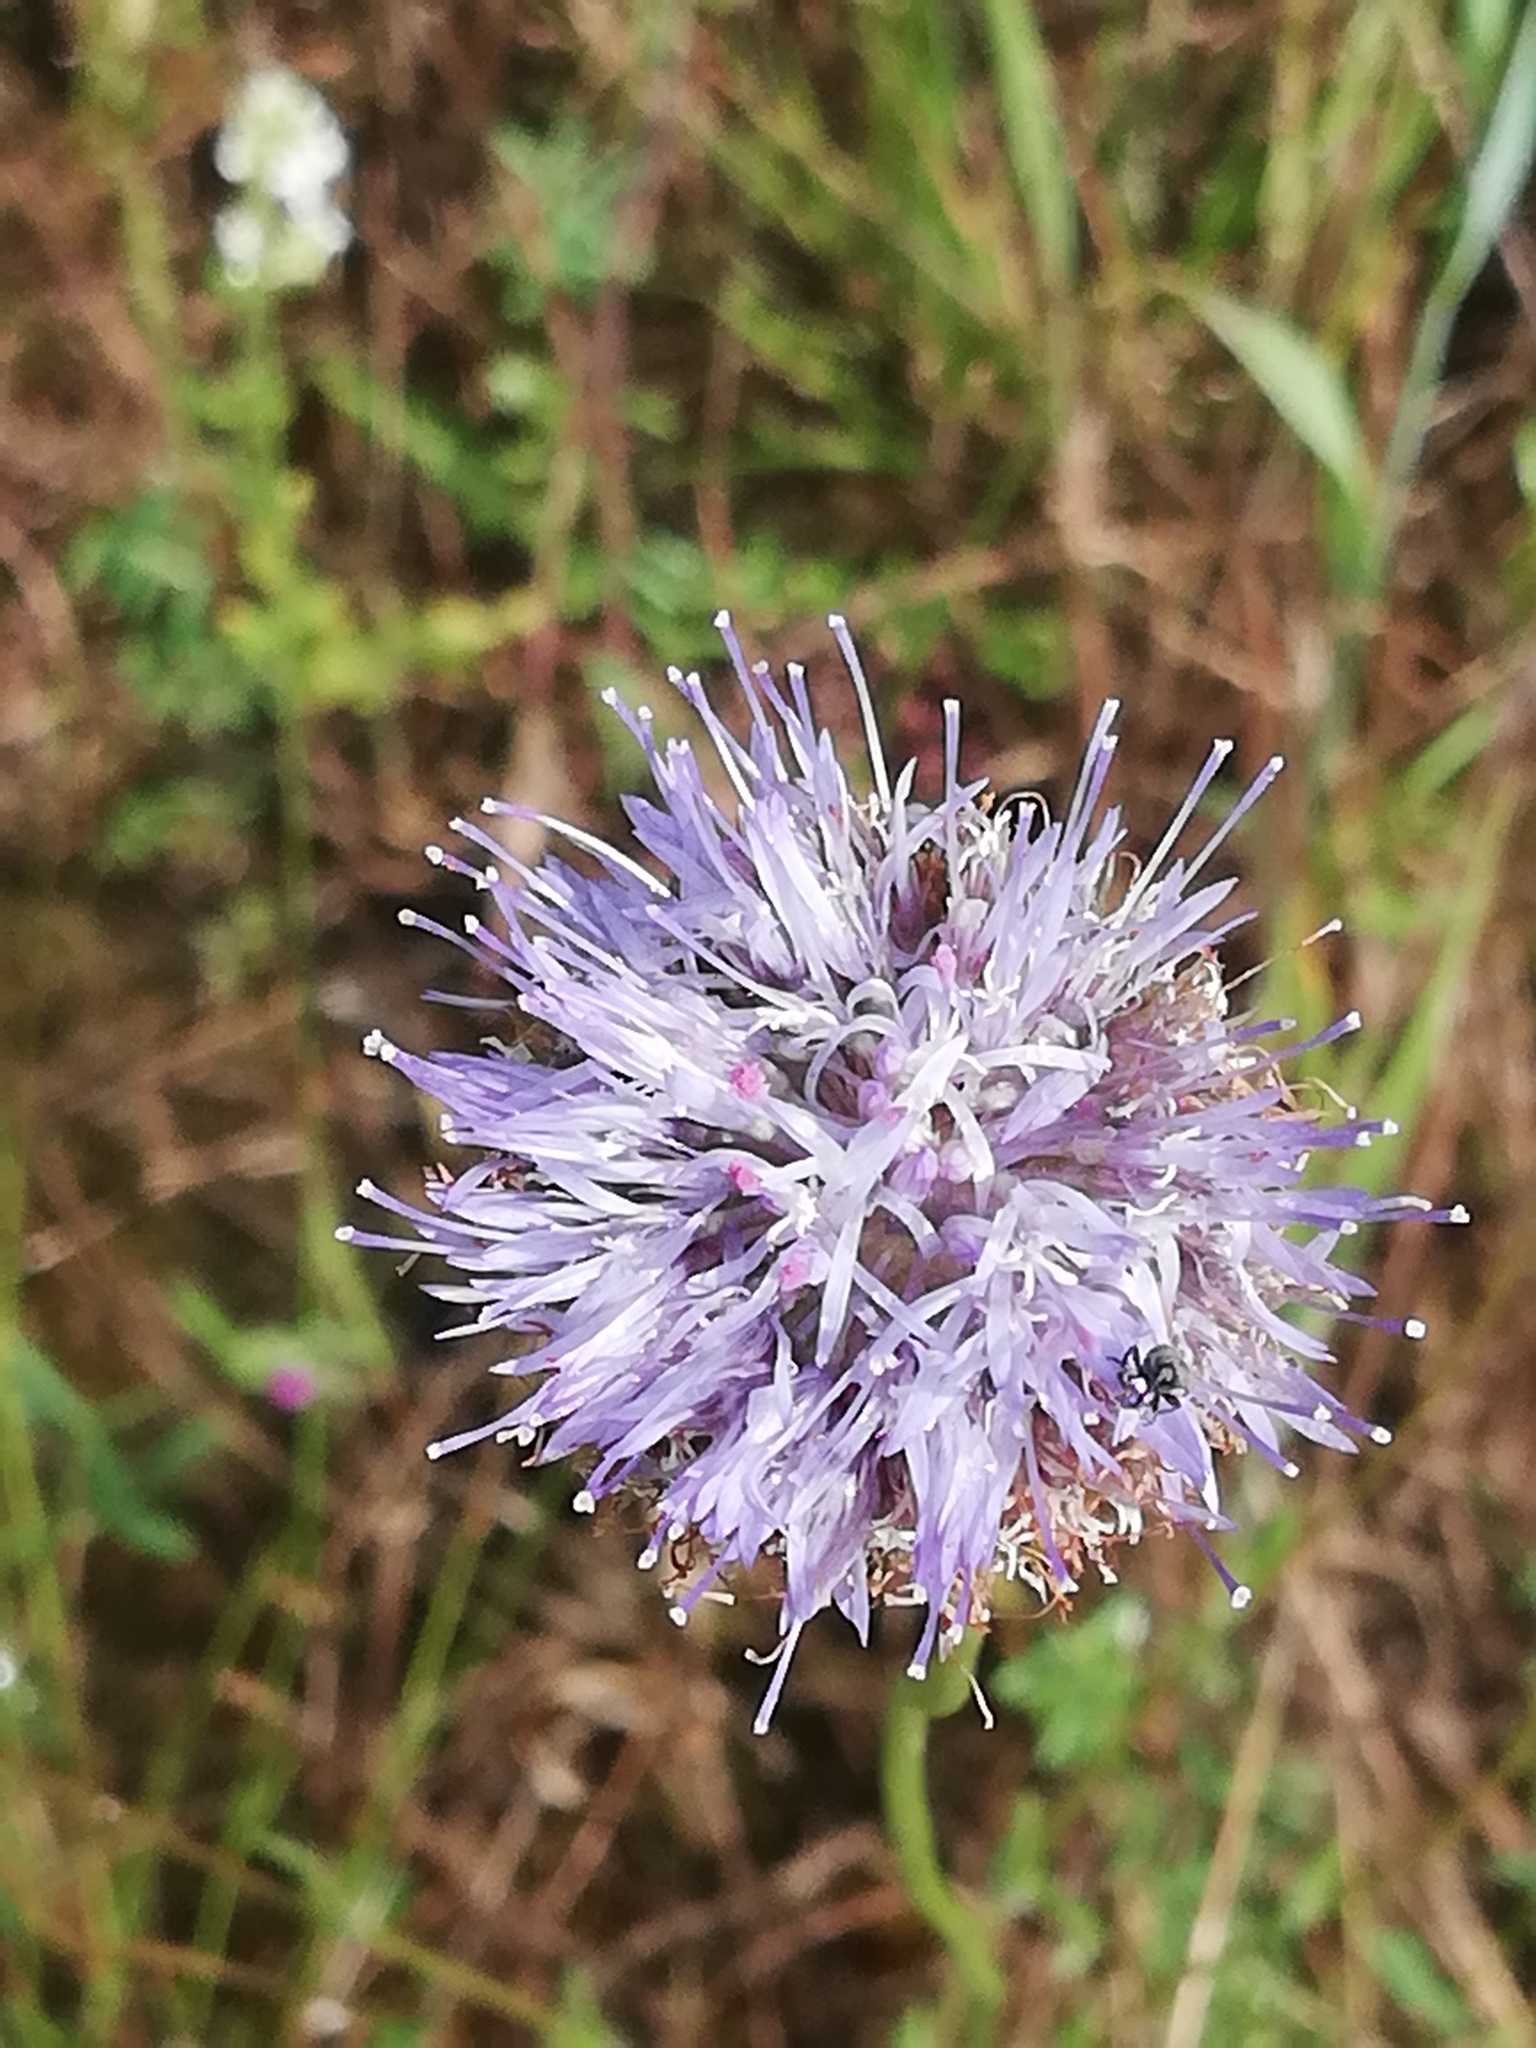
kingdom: Plantae
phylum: Tracheophyta
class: Magnoliopsida
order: Asterales
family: Campanulaceae
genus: Jasione
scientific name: Jasione montana
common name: Sheep's-bit
